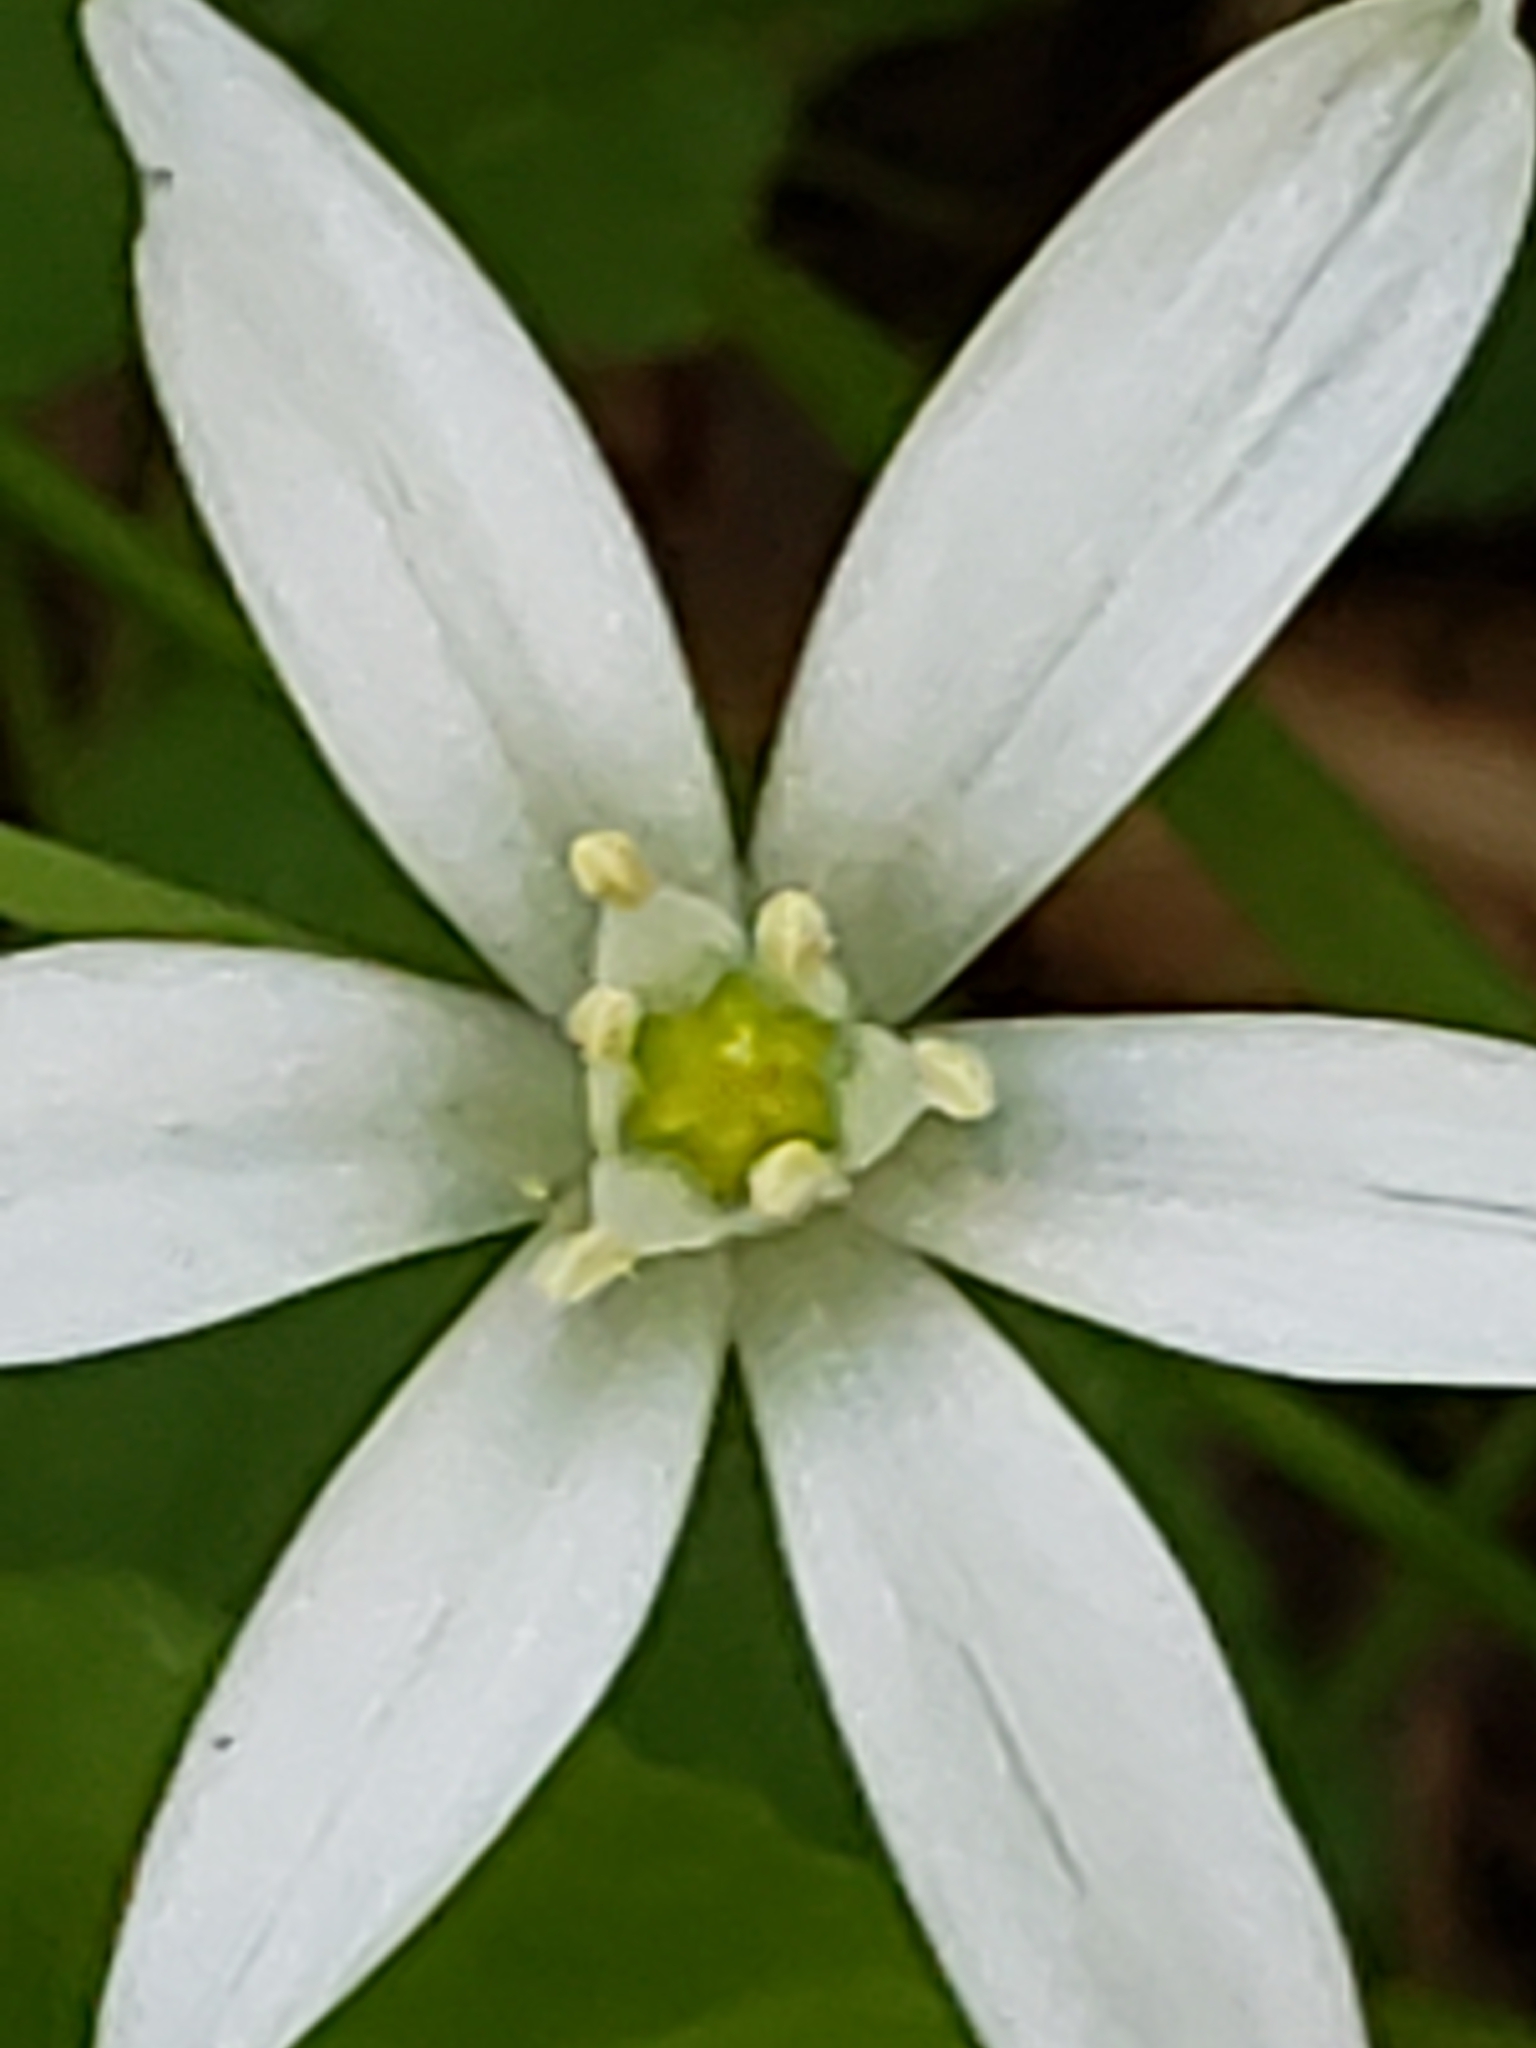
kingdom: Plantae
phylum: Tracheophyta
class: Liliopsida
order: Asparagales
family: Asparagaceae
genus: Ornithogalum
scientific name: Ornithogalum umbellatum
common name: Garden star-of-bethlehem
